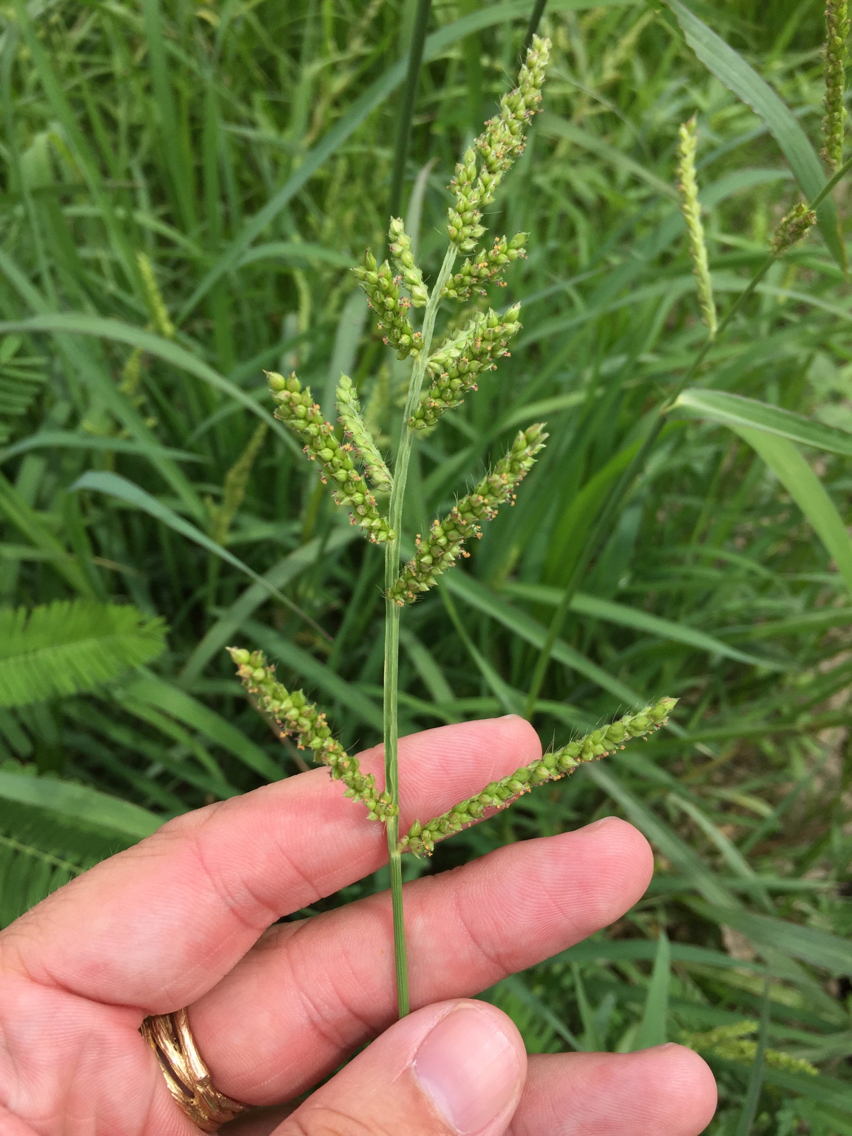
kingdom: Plantae
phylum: Tracheophyta
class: Liliopsida
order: Poales
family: Poaceae
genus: Echinochloa
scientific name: Echinochloa crus-galli
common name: Cockspur
